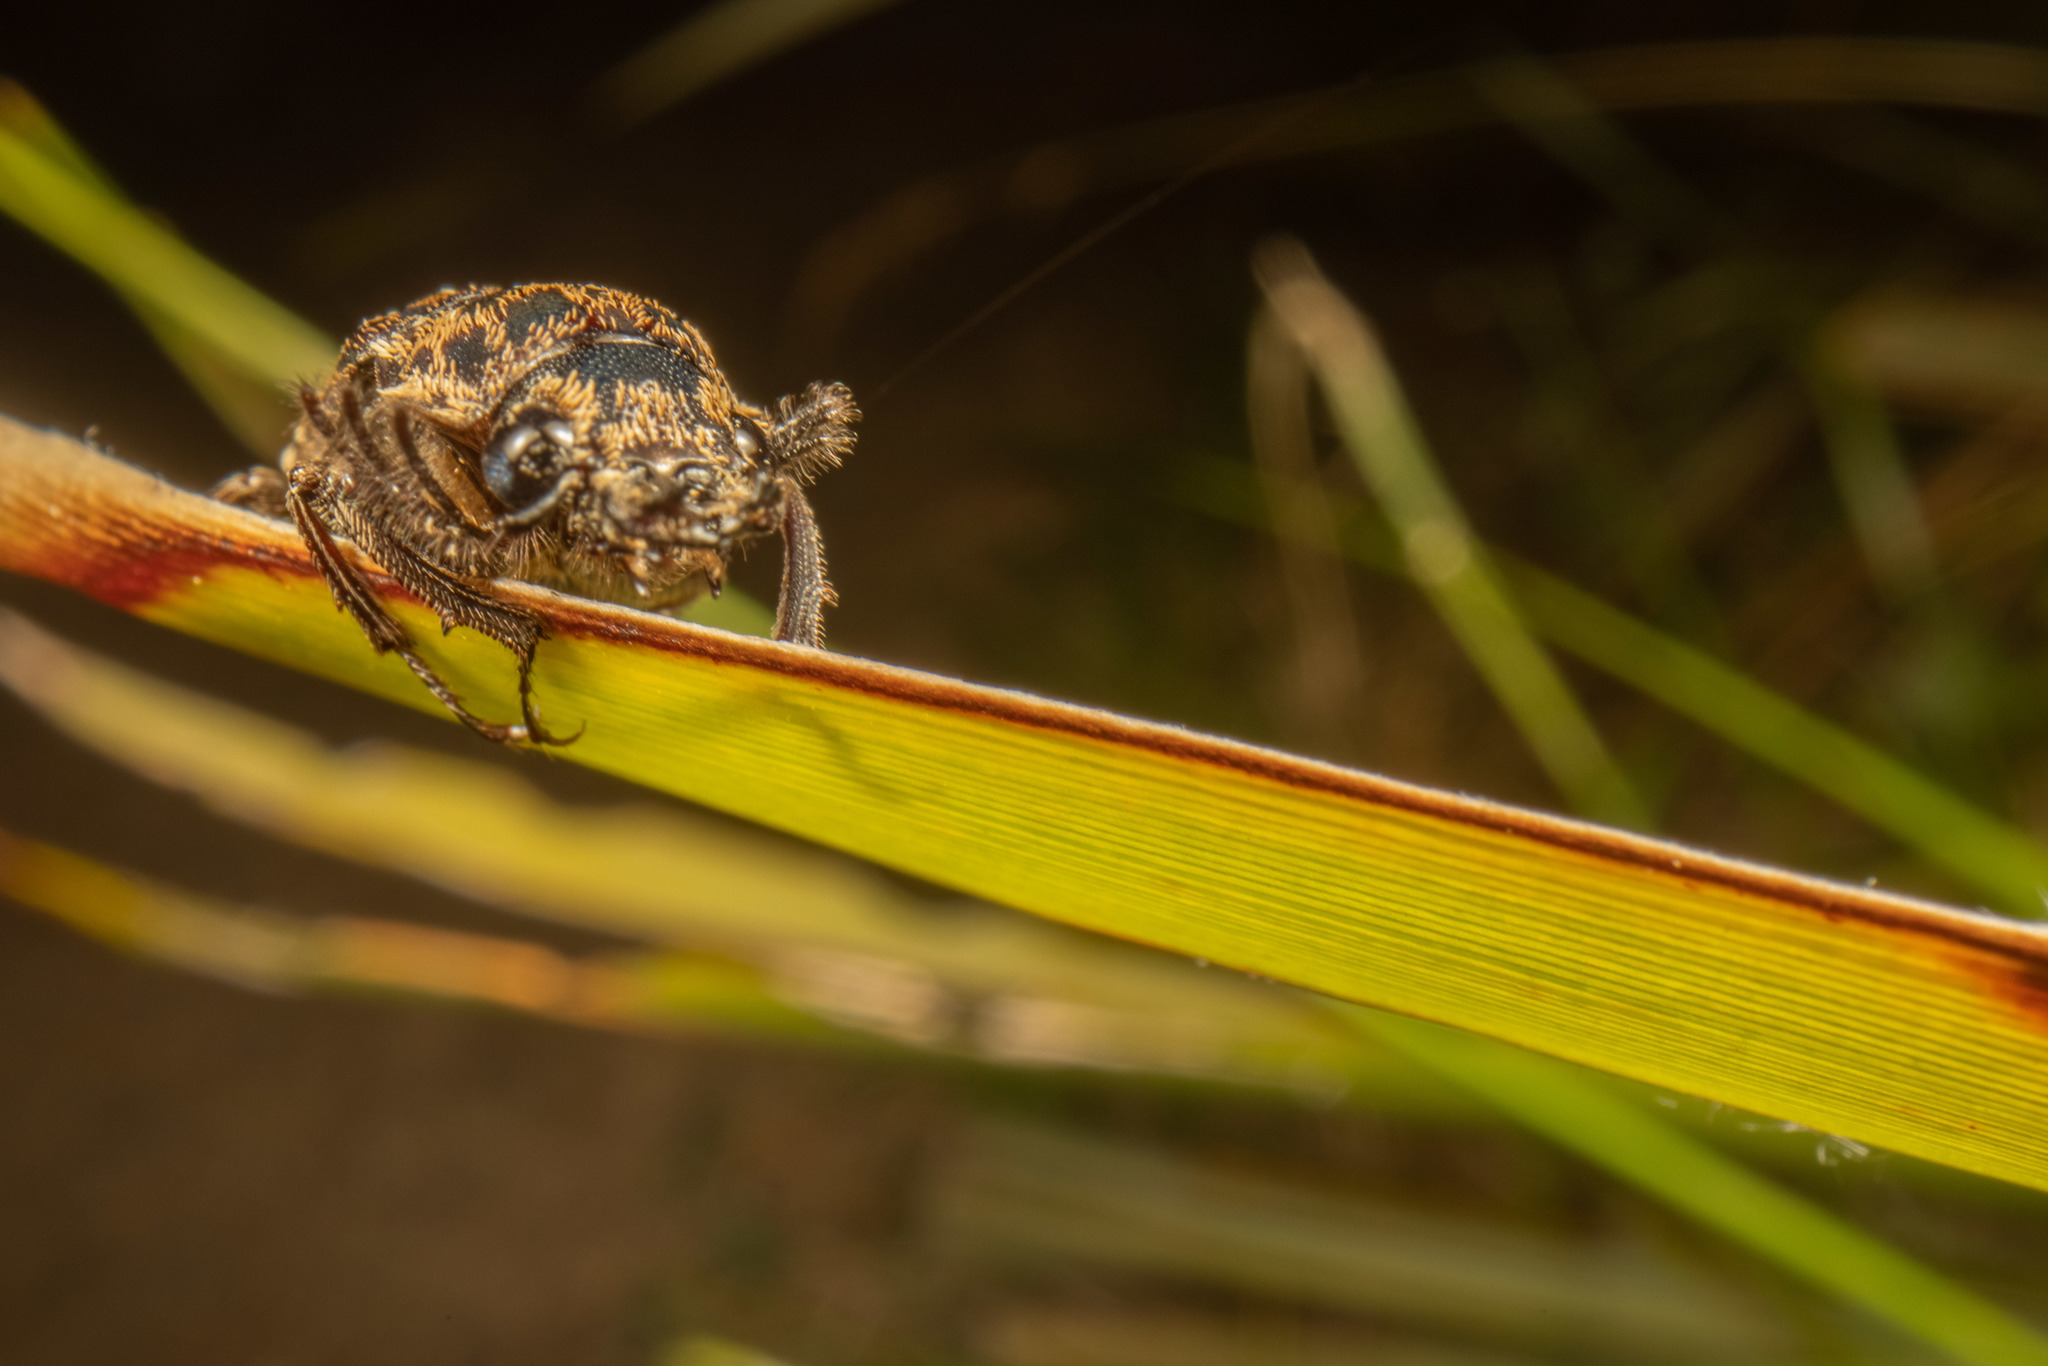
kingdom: Animalia
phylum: Arthropoda
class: Insecta
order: Coleoptera
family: Lucanidae
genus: Mitophyllus
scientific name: Mitophyllus arcuatus
